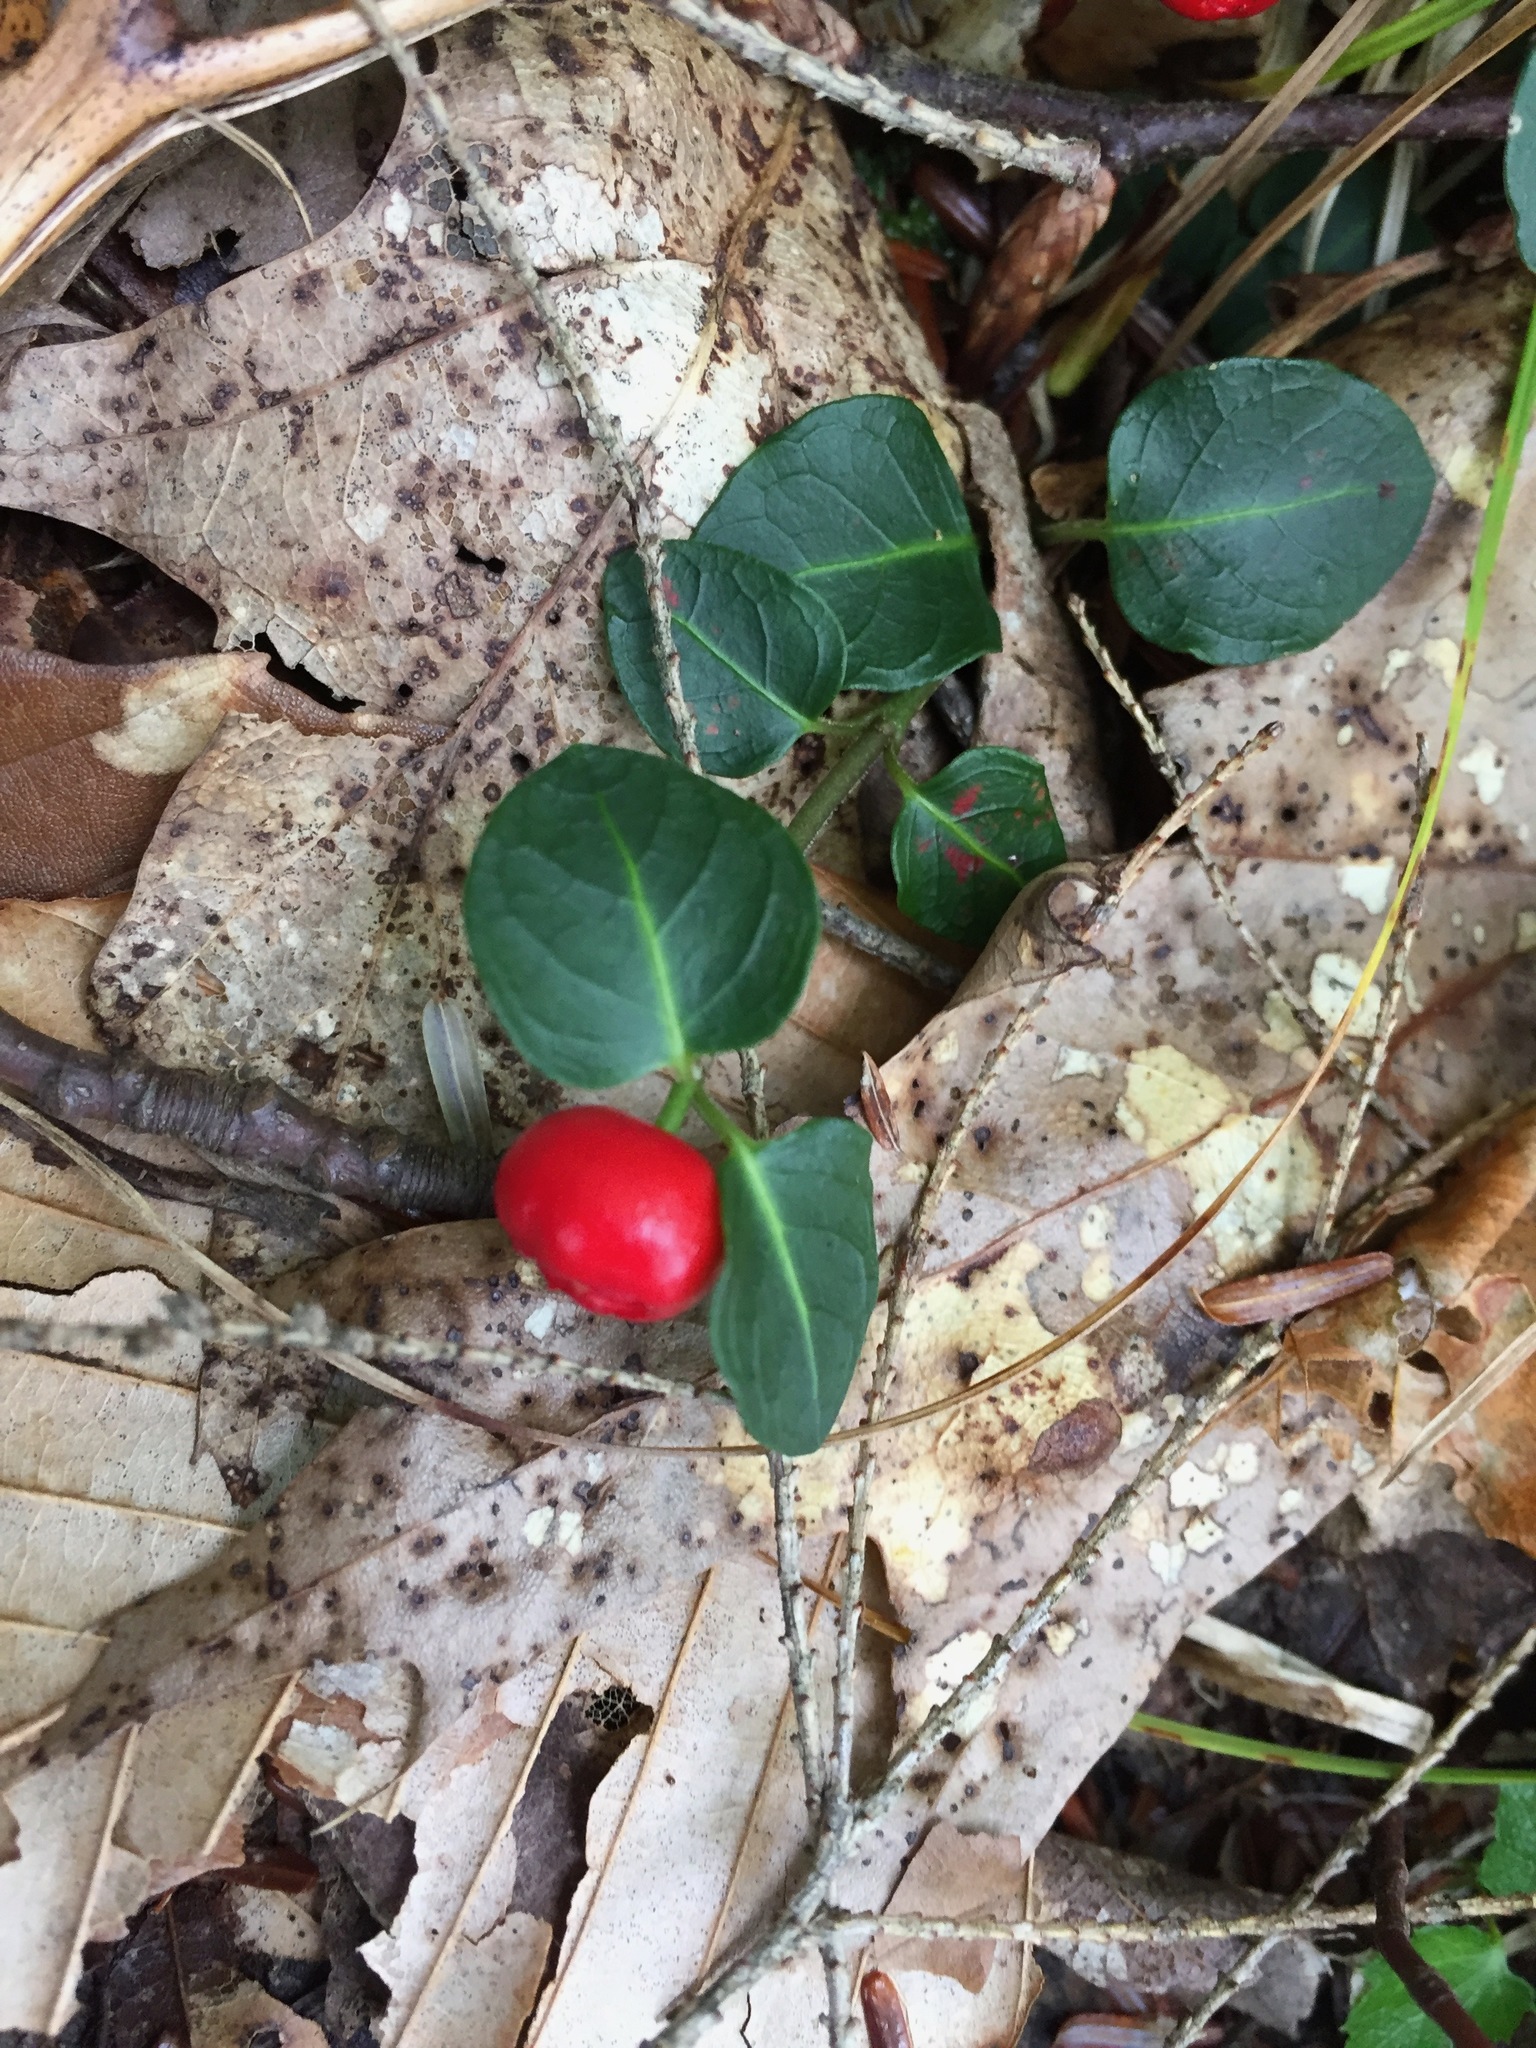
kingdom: Plantae
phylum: Tracheophyta
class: Magnoliopsida
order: Gentianales
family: Rubiaceae
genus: Mitchella
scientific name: Mitchella repens
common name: Partridge-berry
